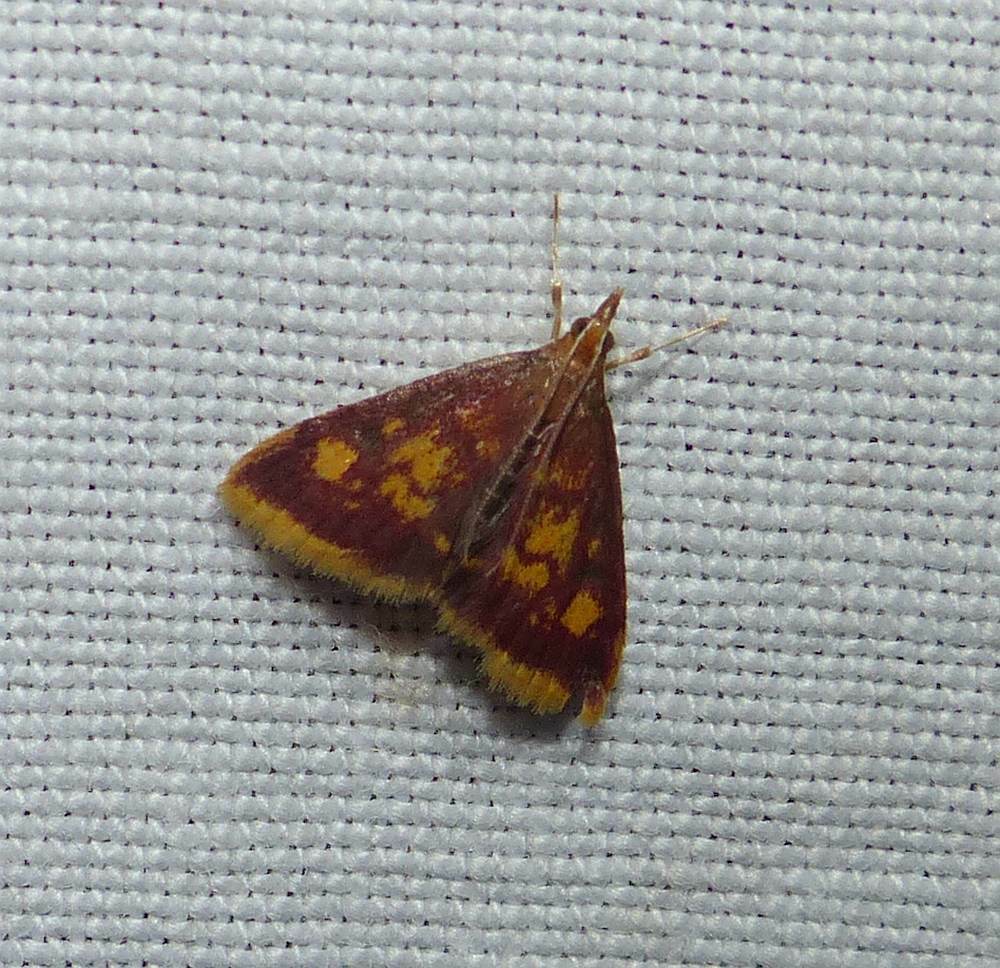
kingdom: Animalia
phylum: Arthropoda
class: Insecta
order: Lepidoptera
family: Crambidae
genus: Pyrausta
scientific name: Pyrausta acrionalis
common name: Mint-loving pyrausta moth
